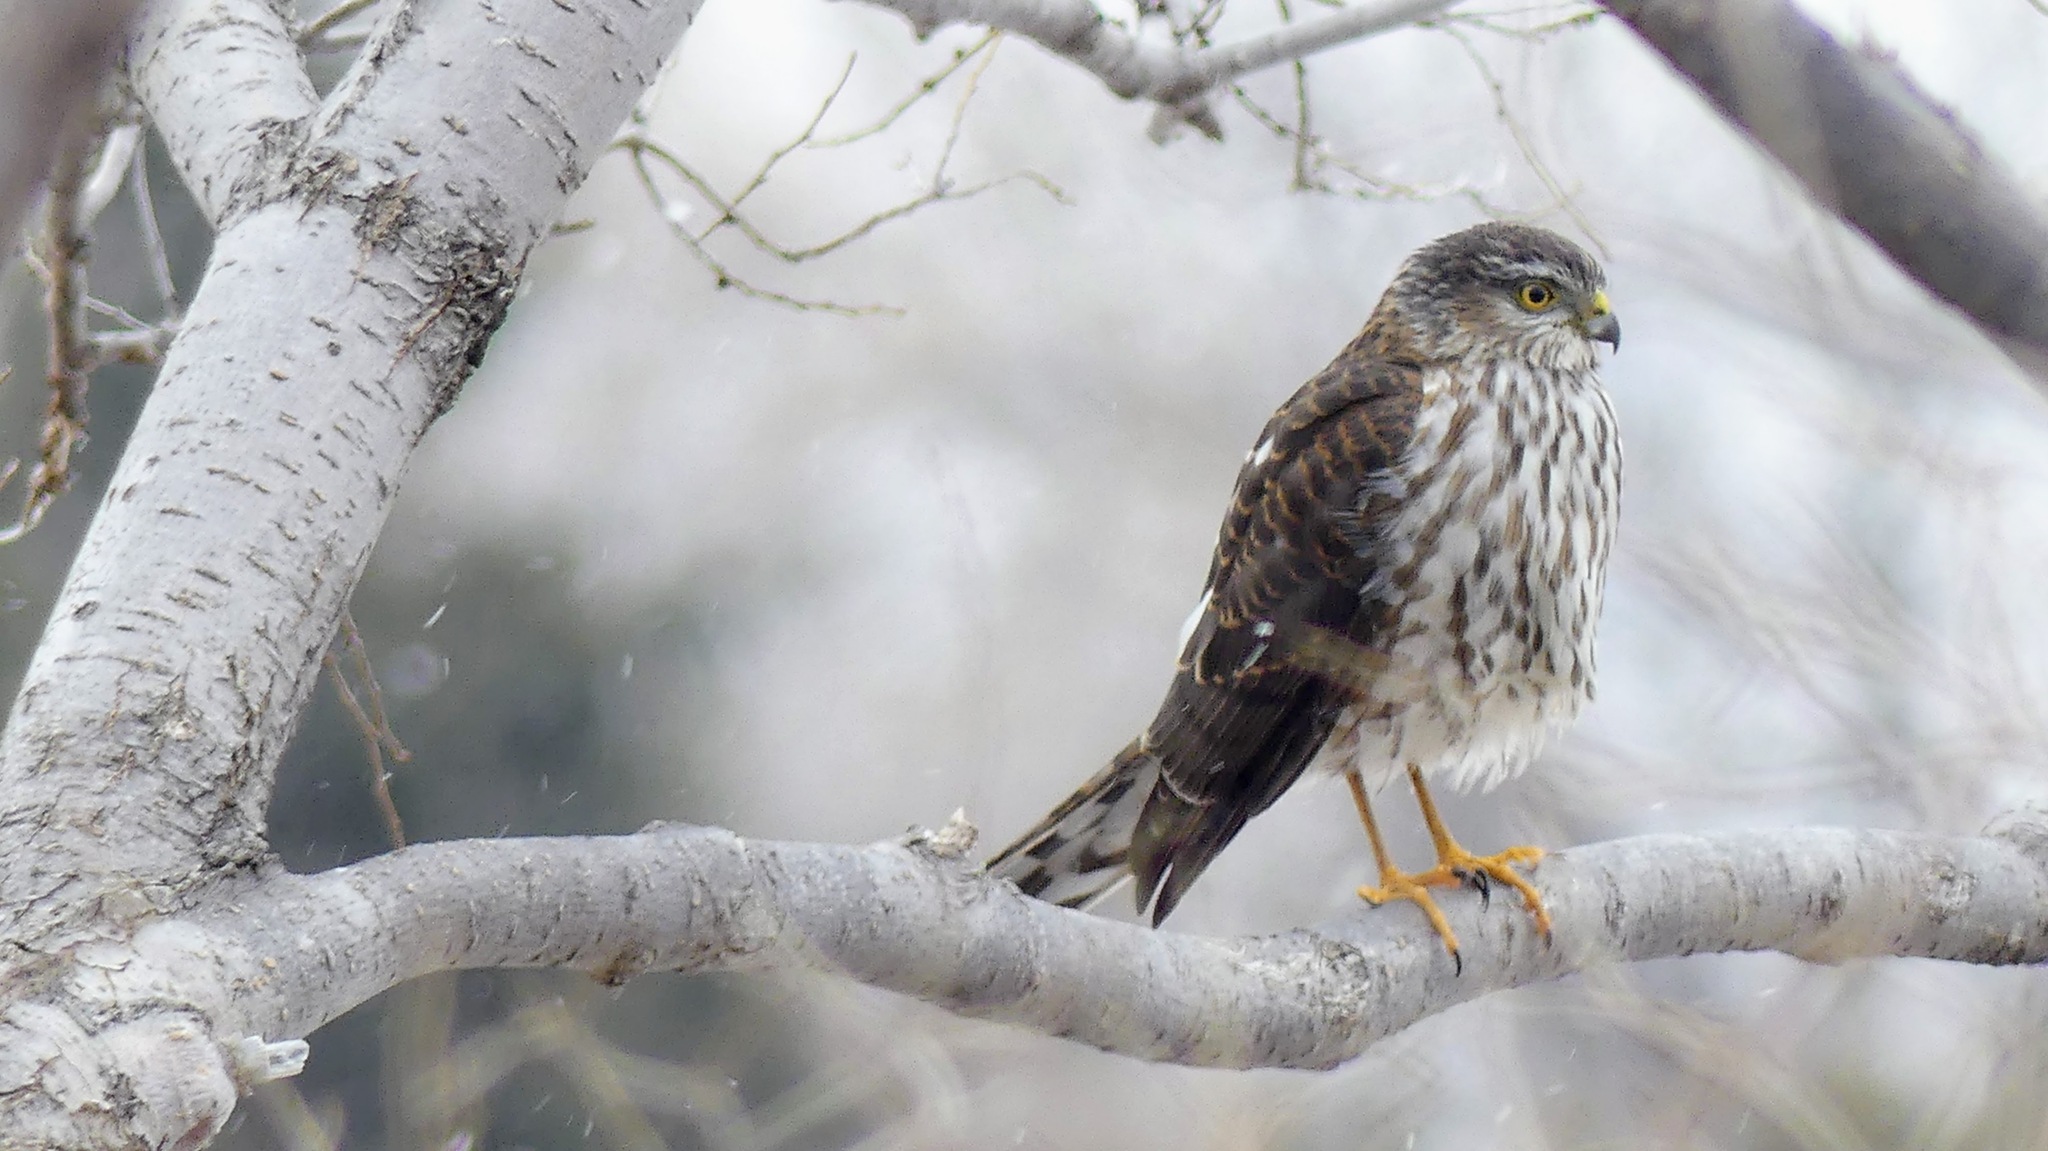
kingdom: Animalia
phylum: Chordata
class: Aves
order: Accipitriformes
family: Accipitridae
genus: Accipiter
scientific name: Accipiter striatus
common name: Sharp-shinned hawk
